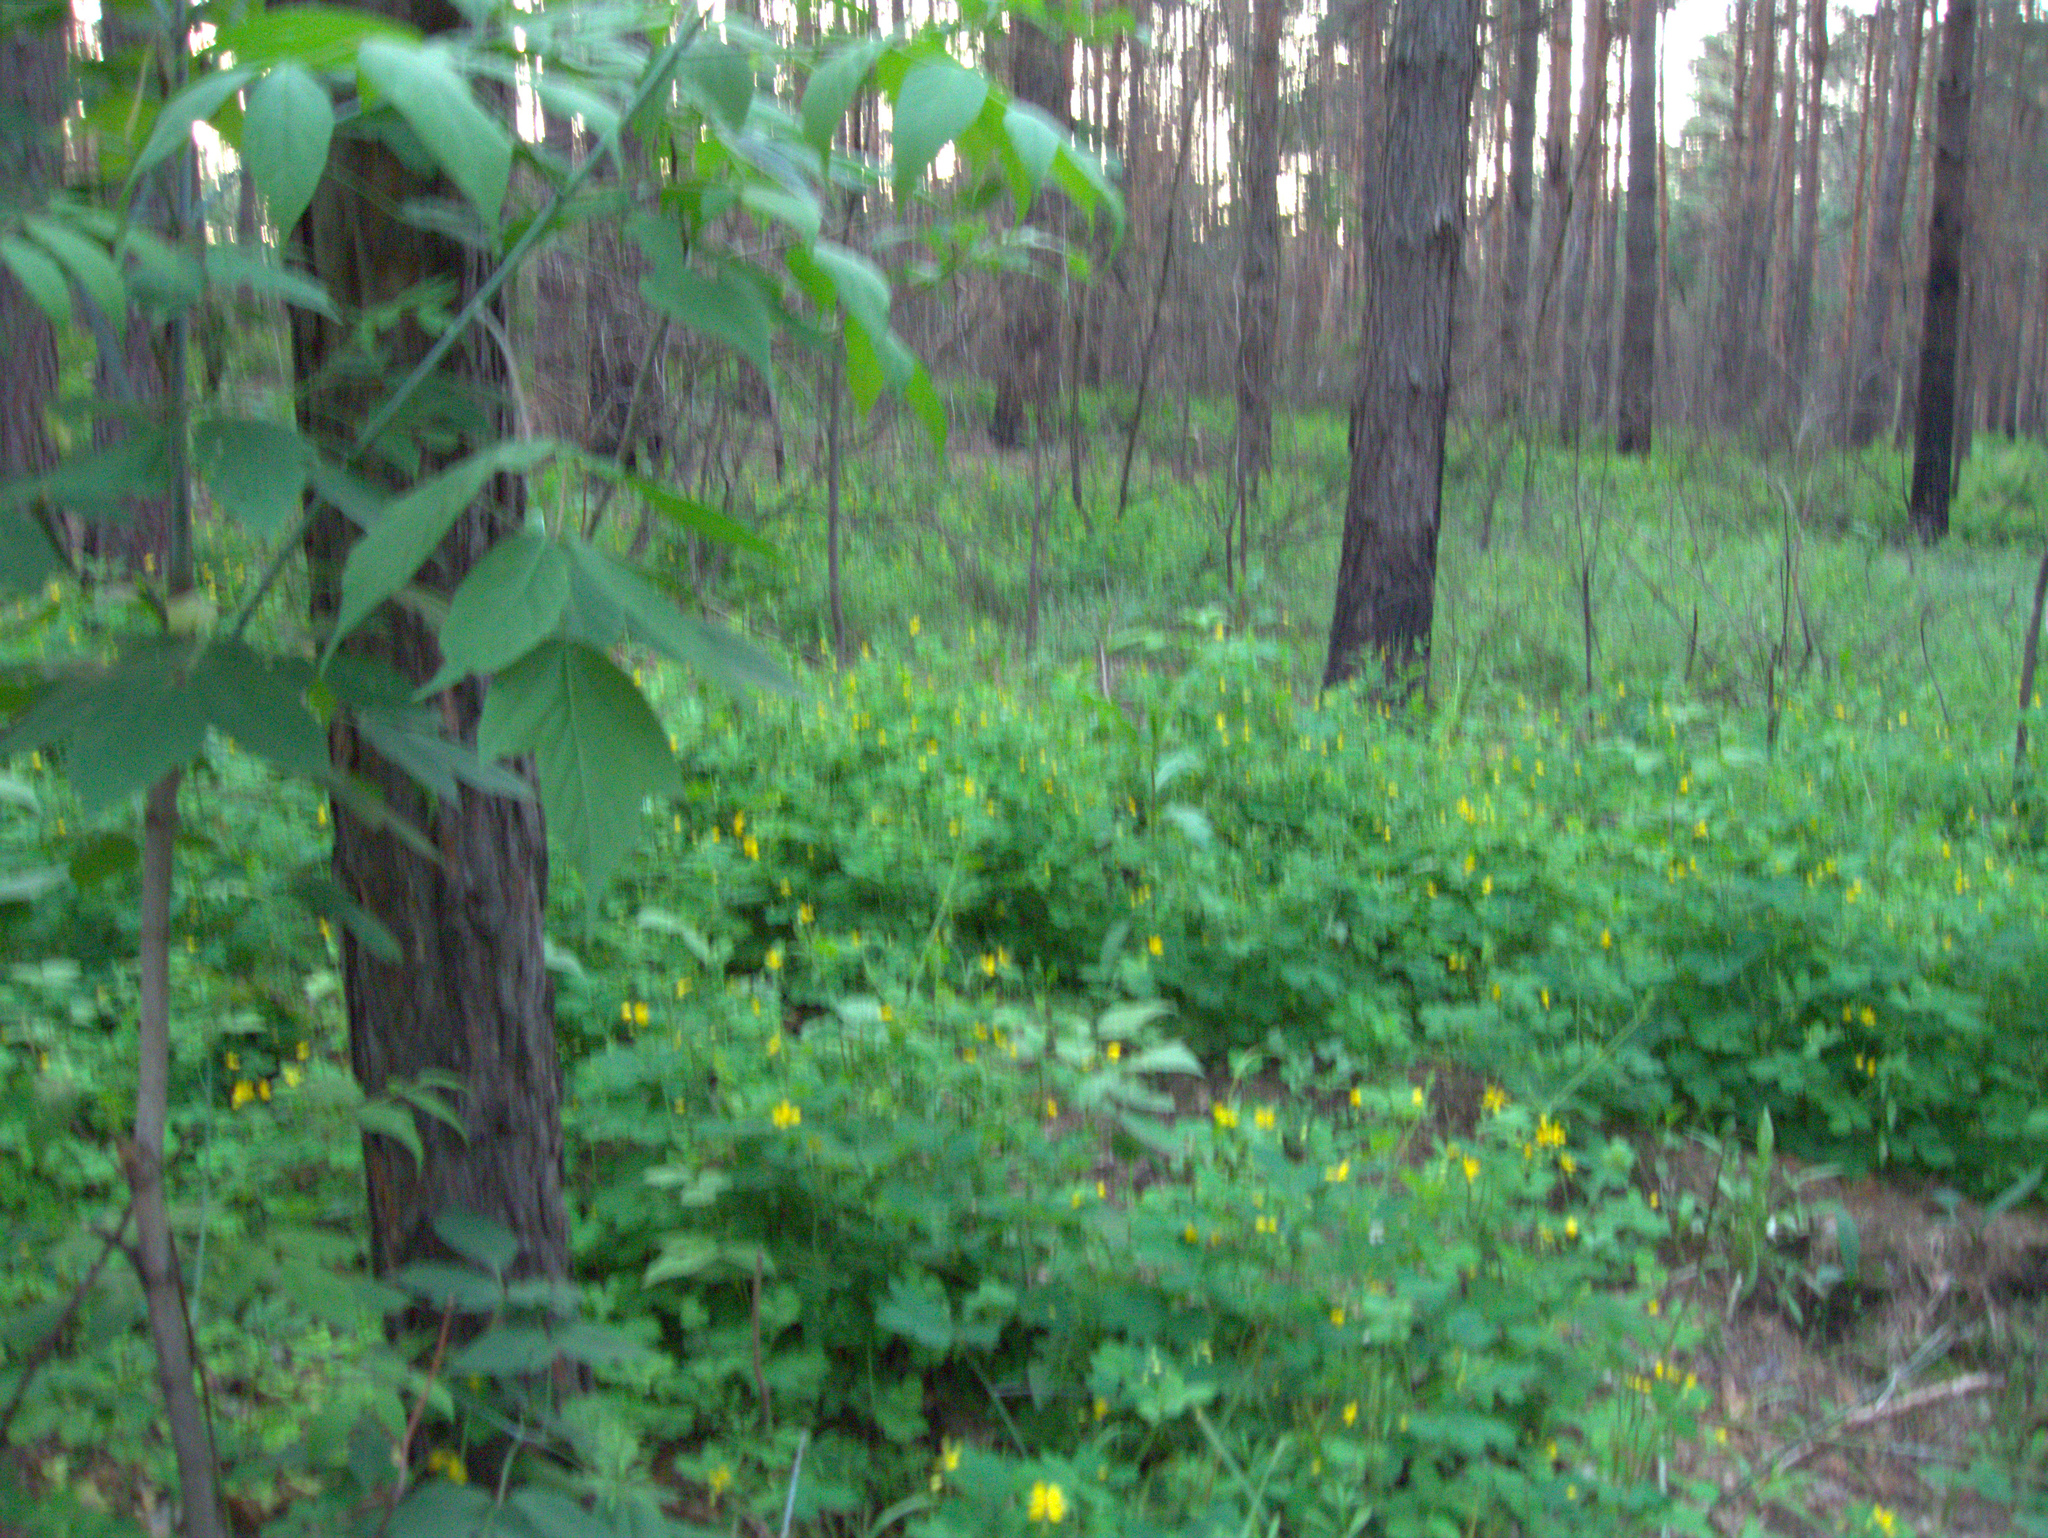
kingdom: Plantae
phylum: Tracheophyta
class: Magnoliopsida
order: Sapindales
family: Sapindaceae
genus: Acer
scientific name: Acer negundo
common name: Ashleaf maple
